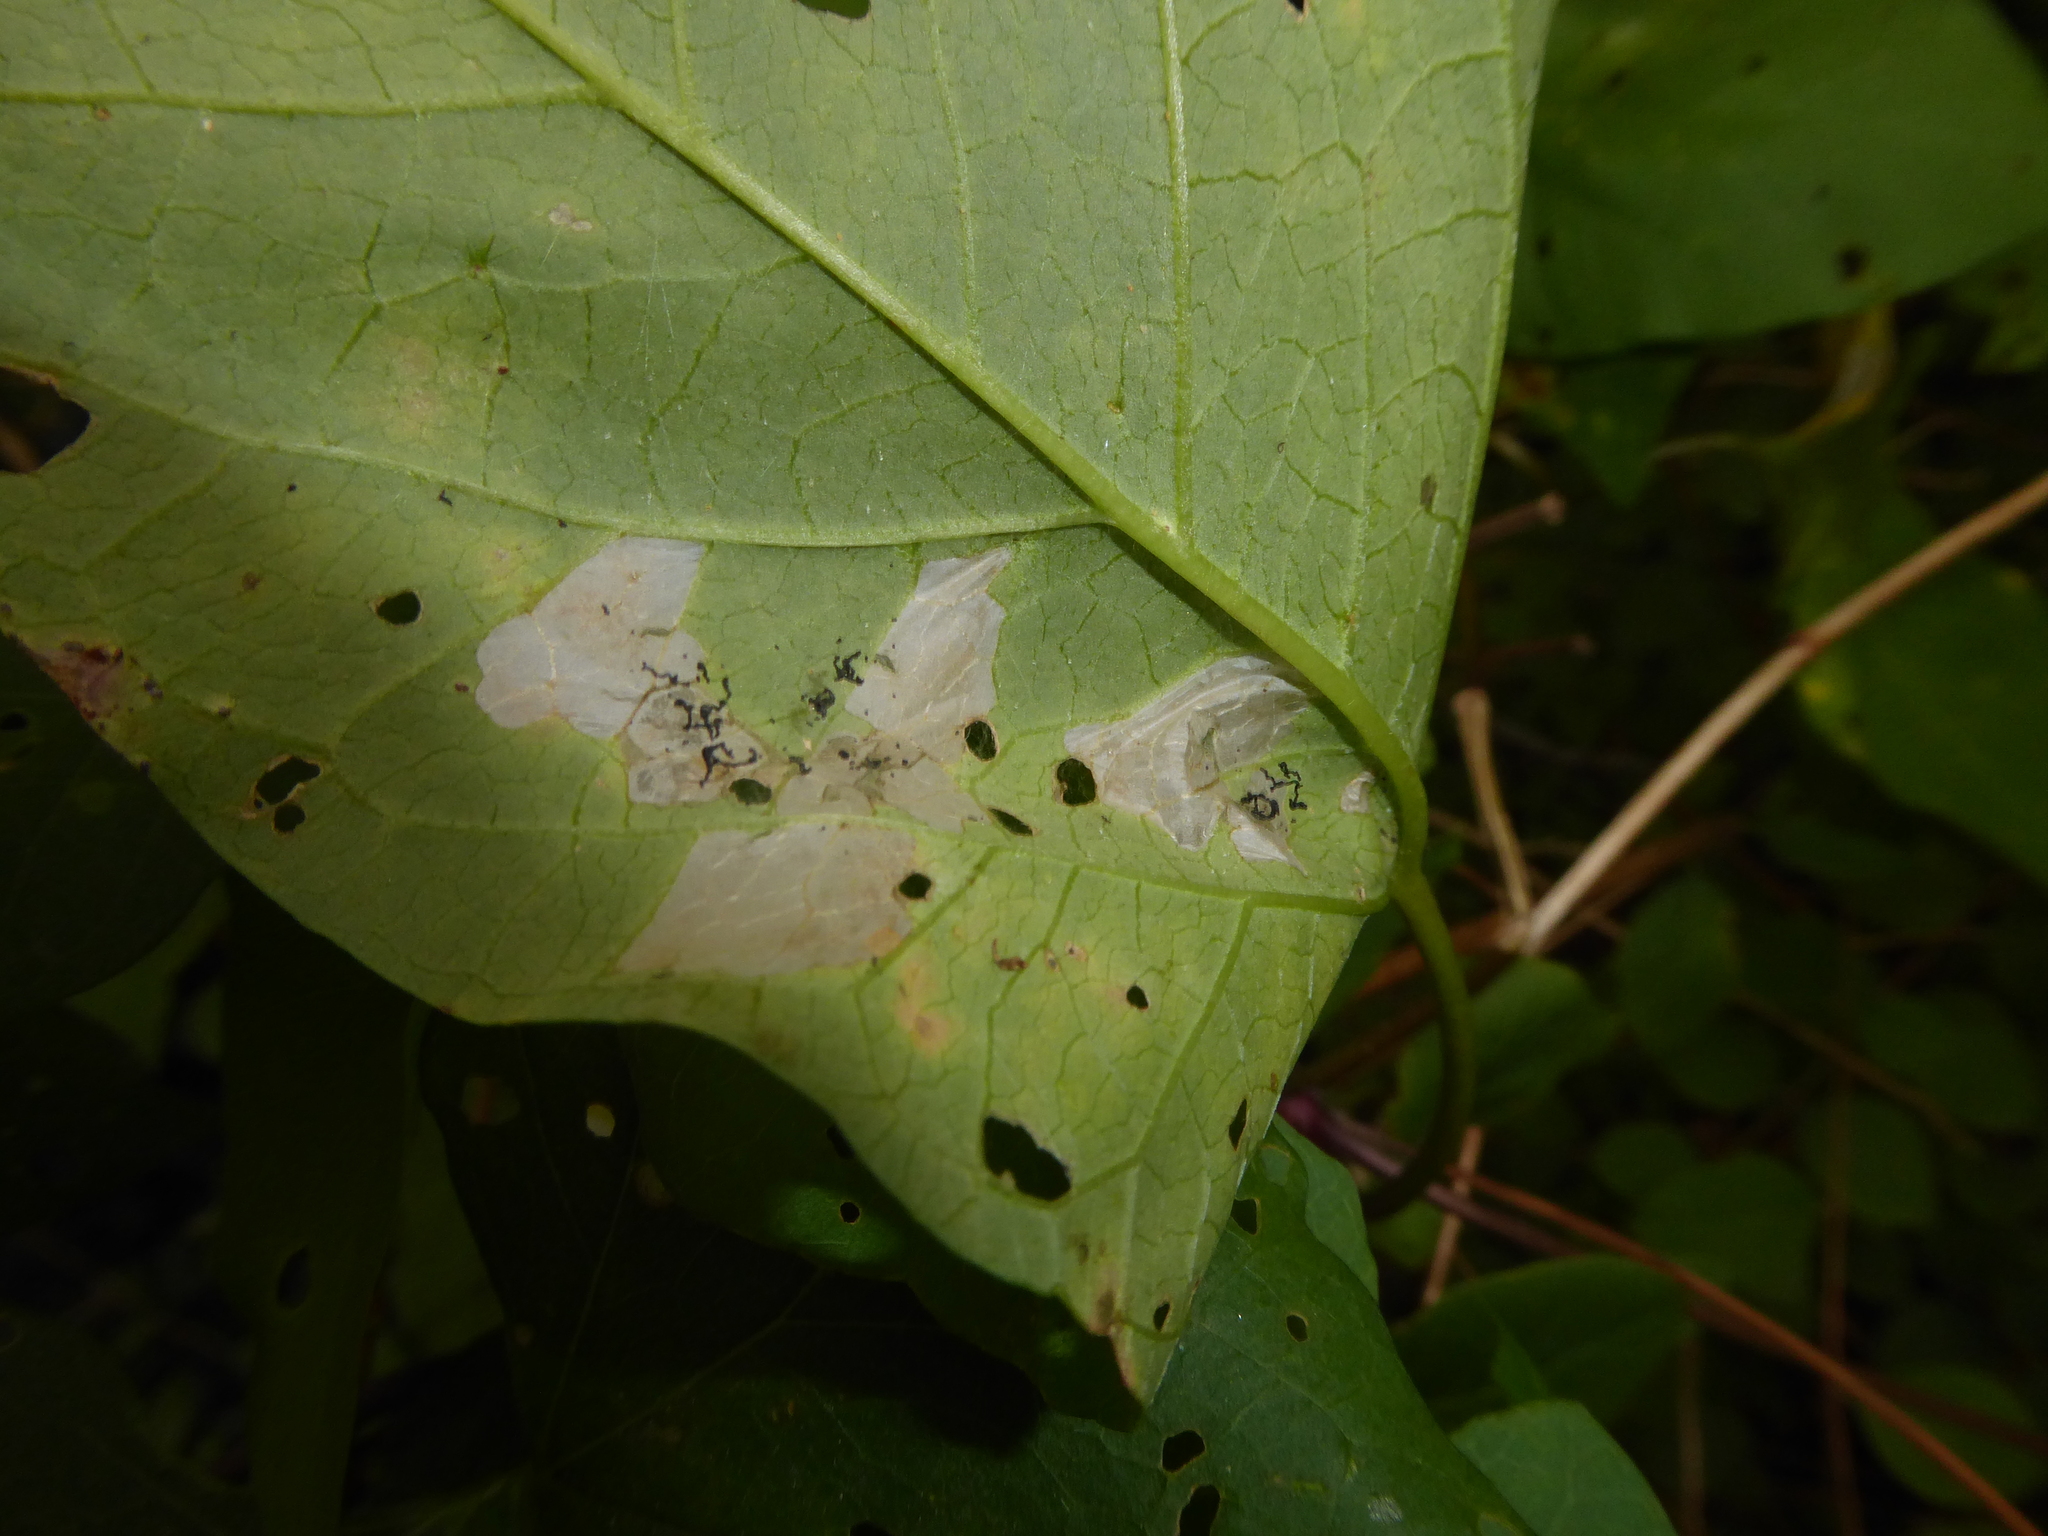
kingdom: Animalia
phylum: Arthropoda
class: Insecta
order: Lepidoptera
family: Bedelliidae
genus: Bedellia
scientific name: Bedellia somnulentella
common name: Morning-glory leafminer moth
